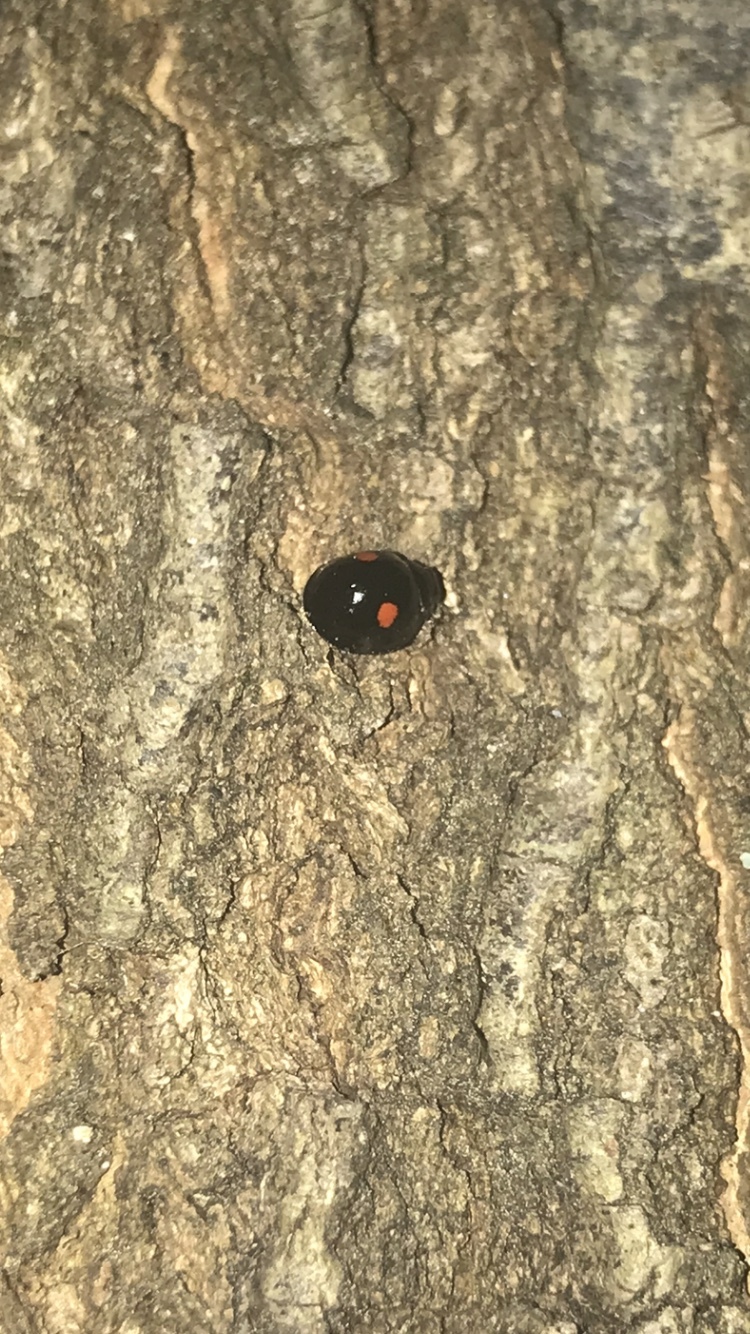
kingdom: Animalia
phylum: Arthropoda
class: Insecta
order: Coleoptera
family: Coccinellidae
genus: Chilocorus
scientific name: Chilocorus stigma
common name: Twicestabbed lady beetle
